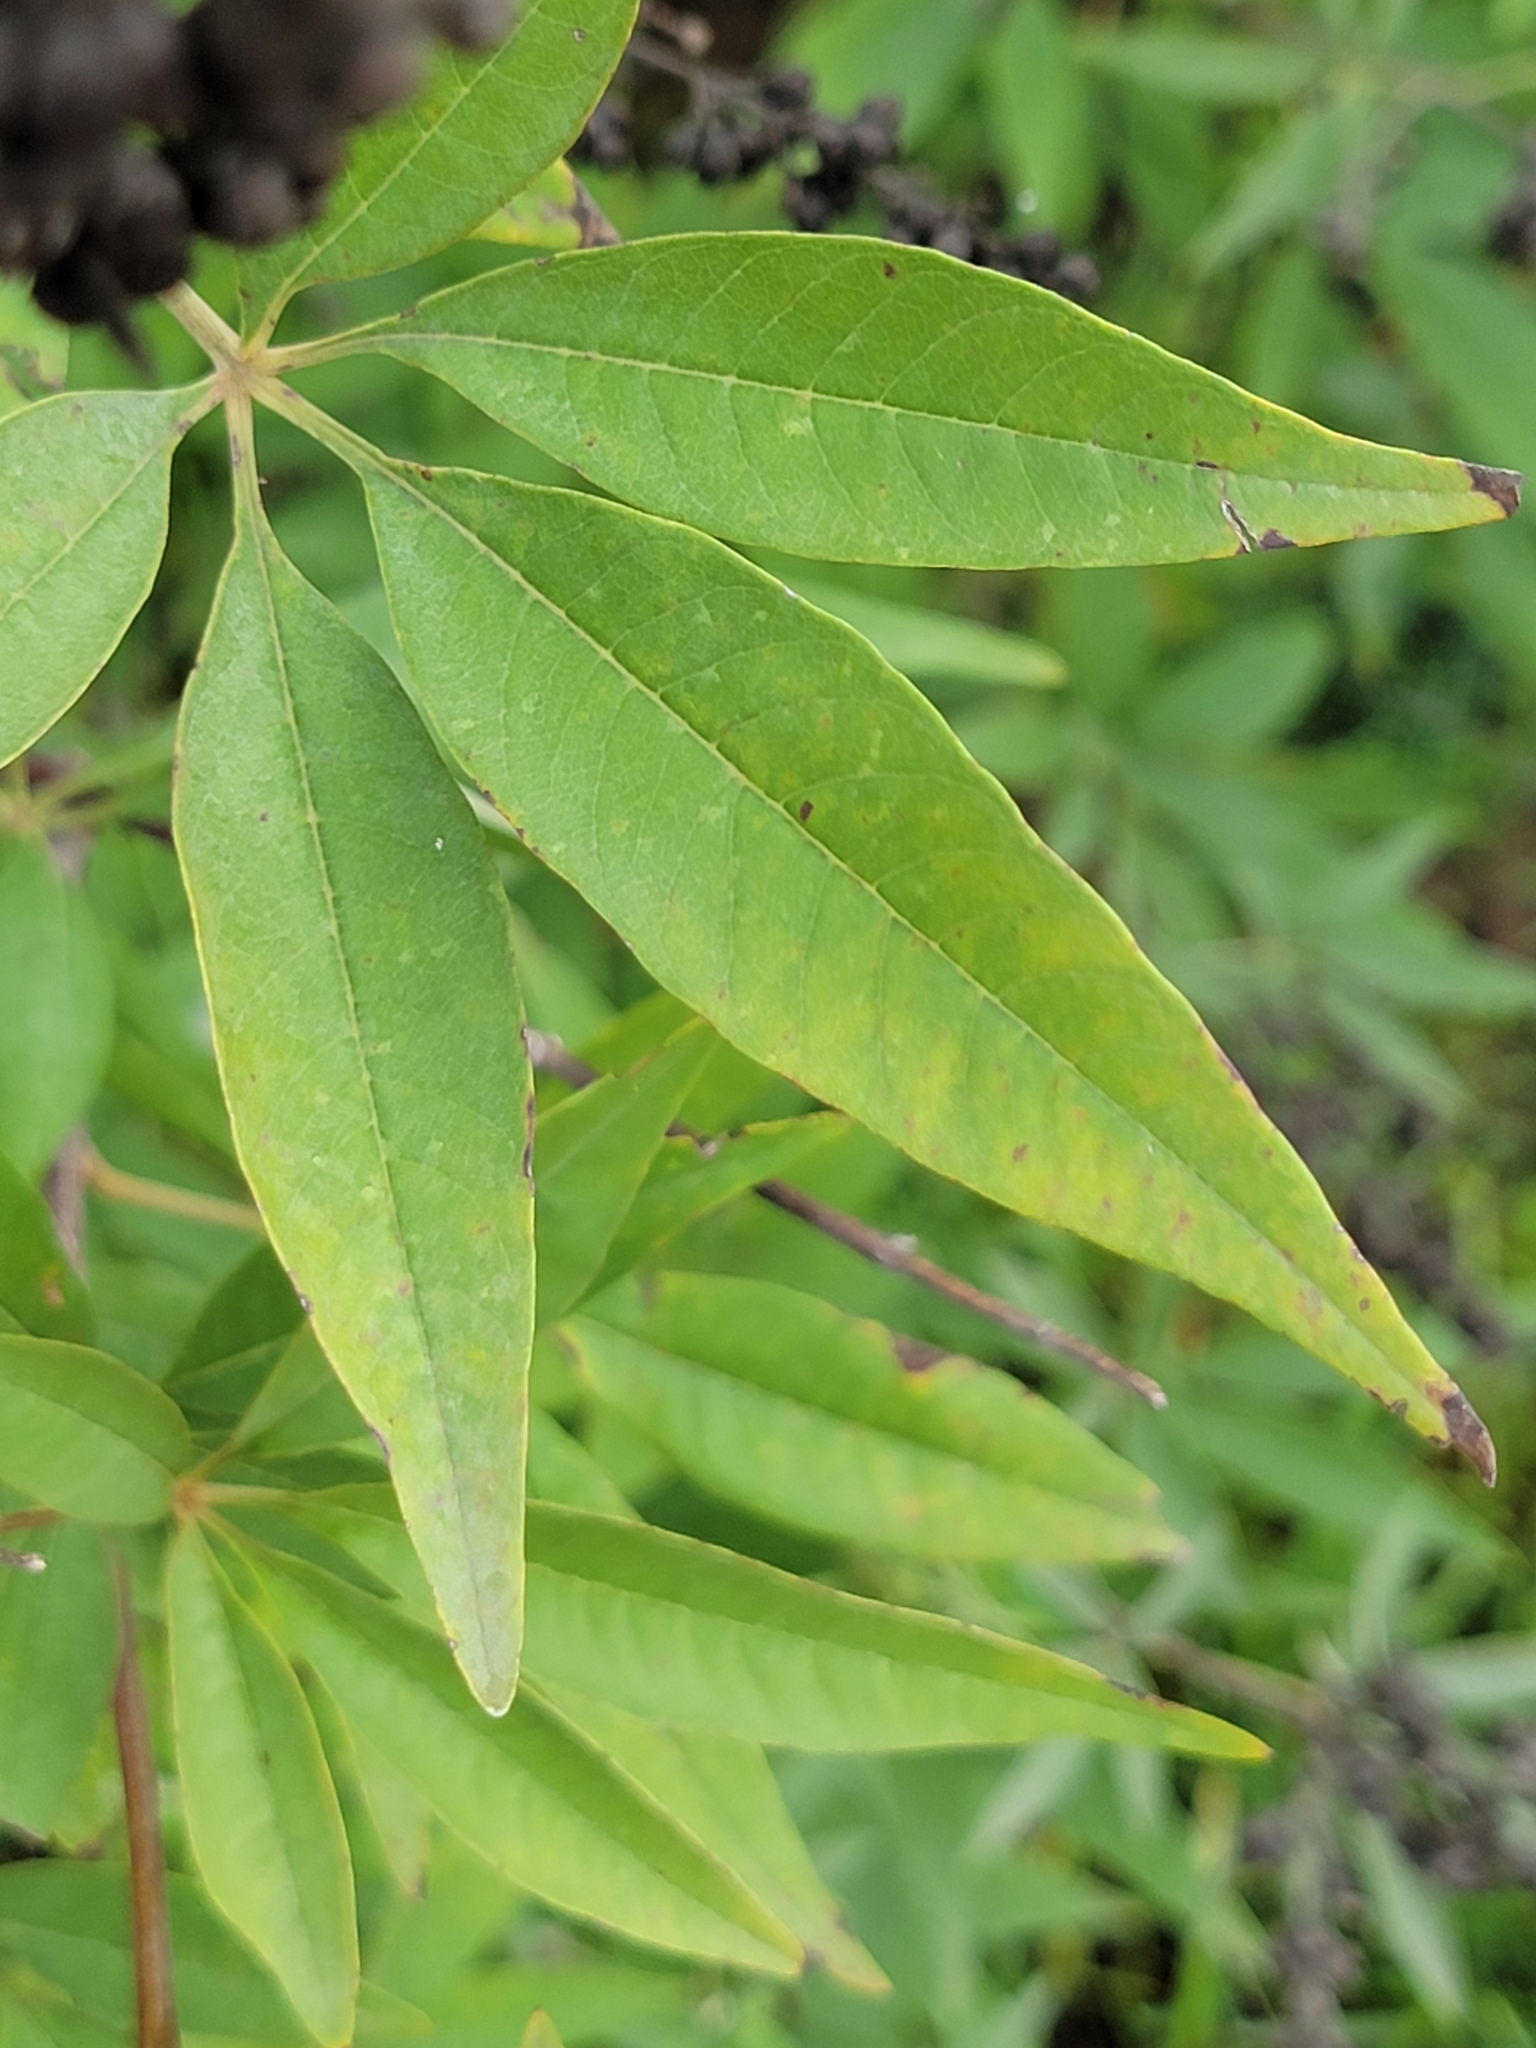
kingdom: Plantae
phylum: Tracheophyta
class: Magnoliopsida
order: Lamiales
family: Lamiaceae
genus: Vitex
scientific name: Vitex agnus-castus
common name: Chasteberry
